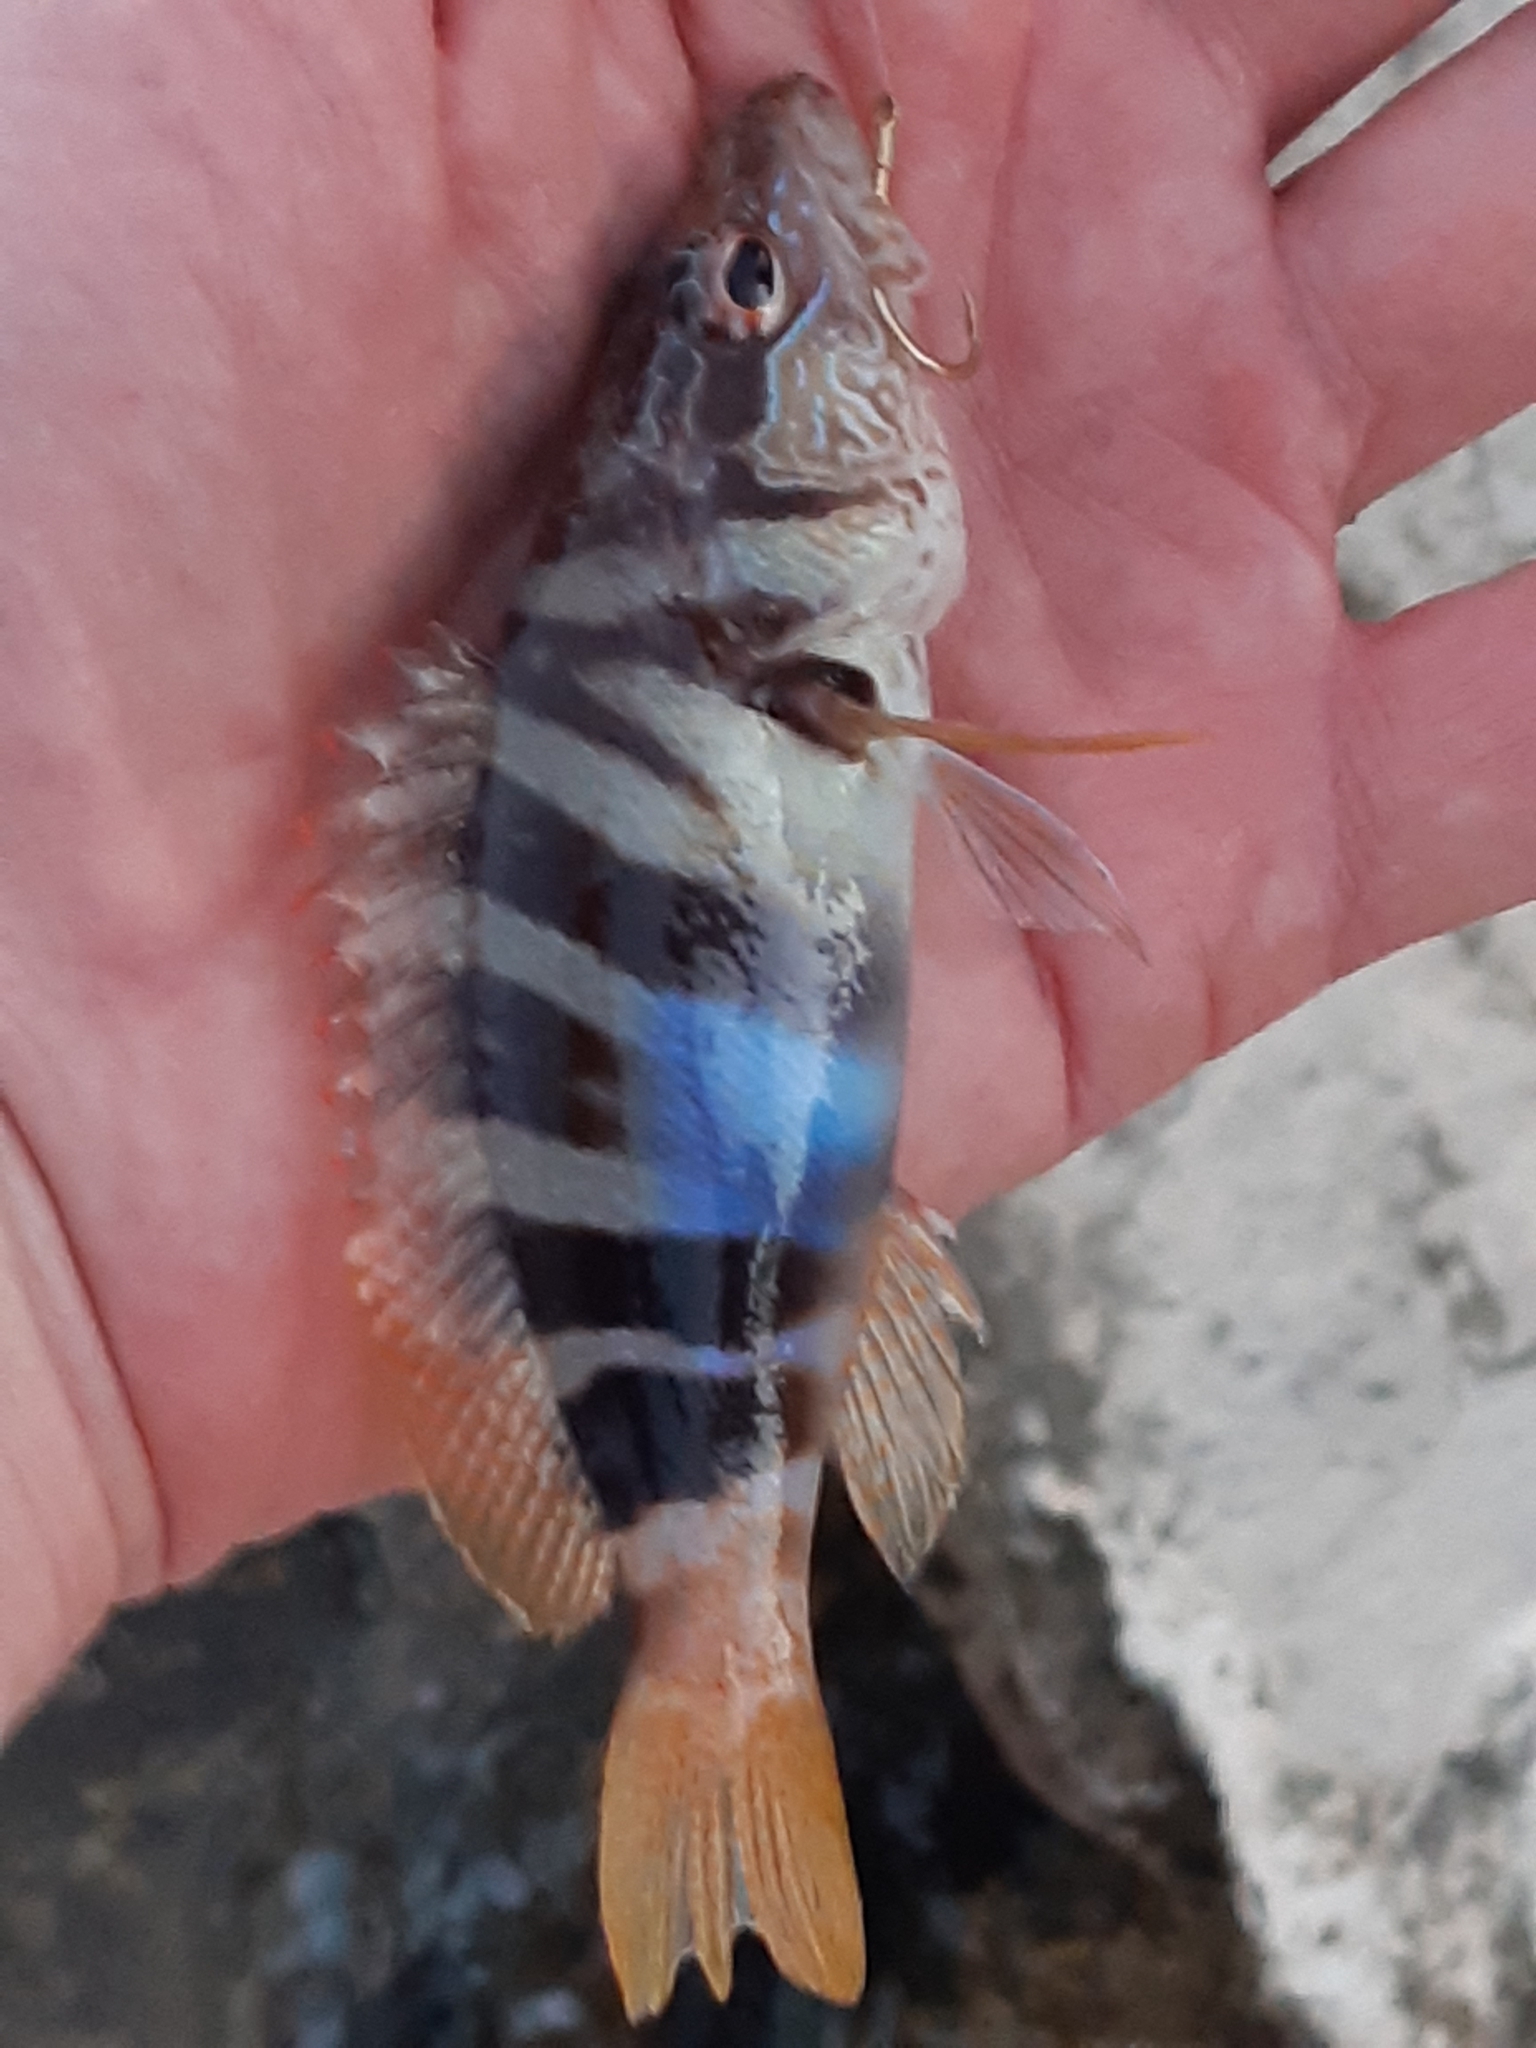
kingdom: Animalia
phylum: Chordata
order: Perciformes
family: Serranidae
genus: Serranus
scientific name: Serranus scriba
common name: Painted comber
